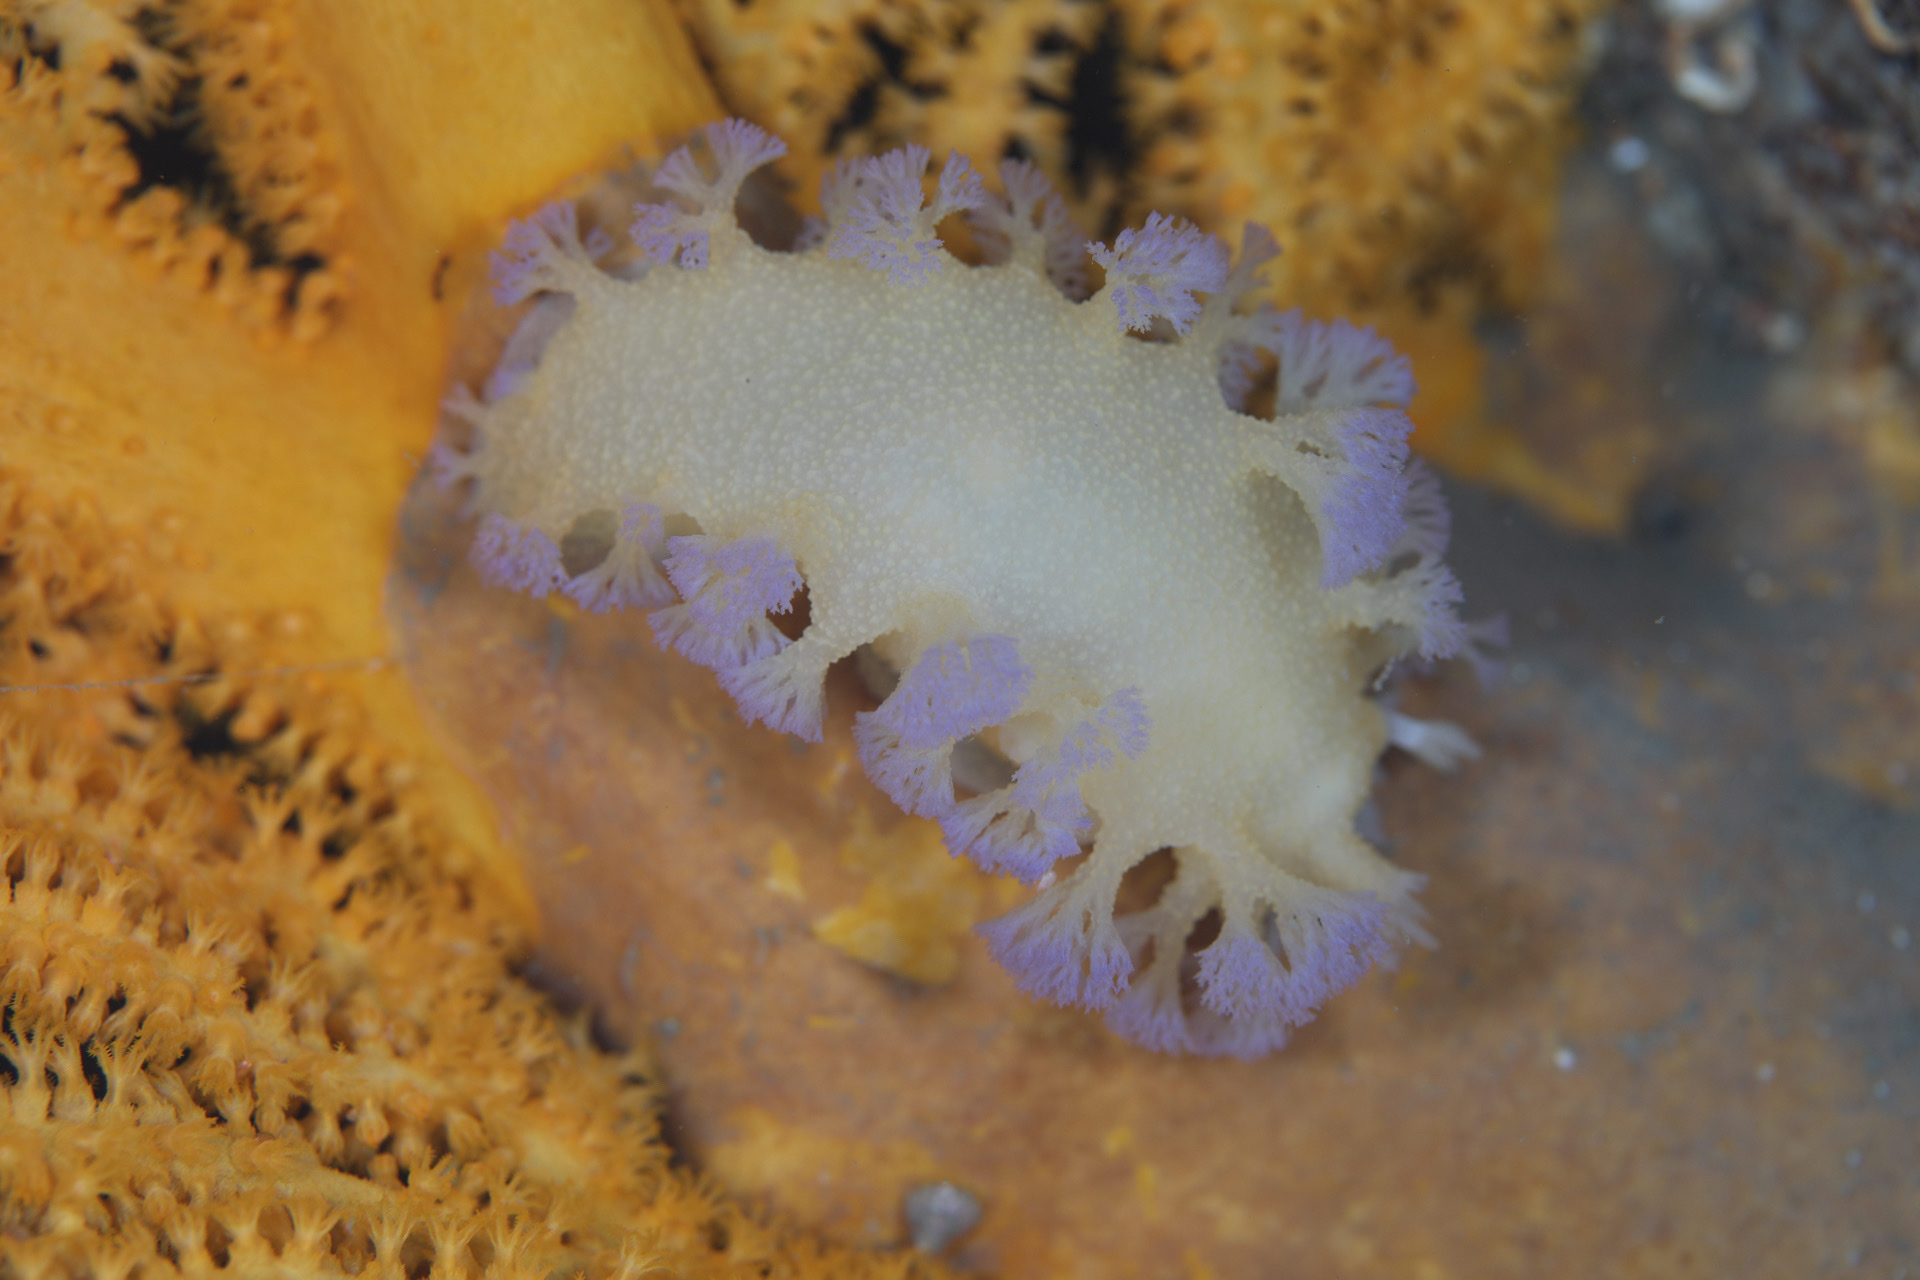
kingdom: Animalia
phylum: Mollusca
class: Gastropoda
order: Nudibranchia
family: Tritoniidae
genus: Tritonia
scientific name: Tritonia griegi
